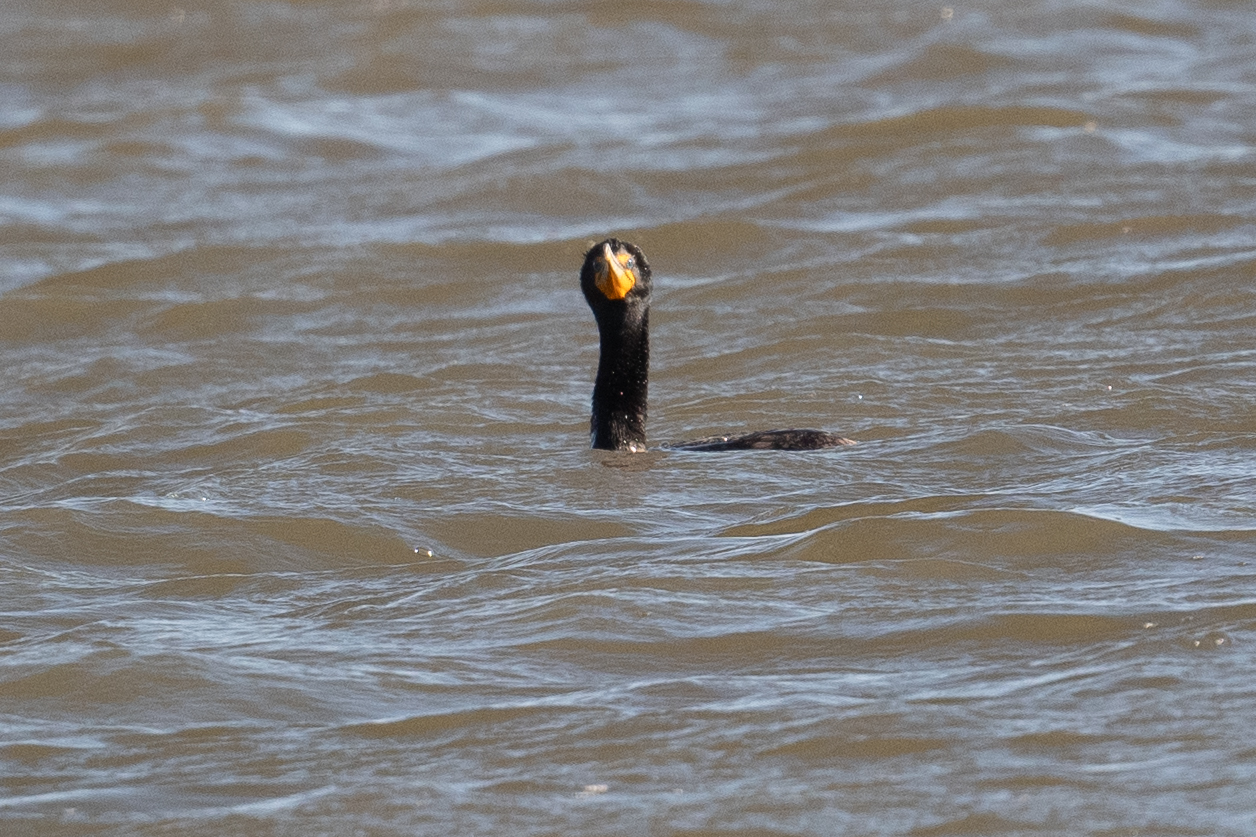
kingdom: Animalia
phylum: Chordata
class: Aves
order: Suliformes
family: Phalacrocoracidae
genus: Phalacrocorax
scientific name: Phalacrocorax auritus
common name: Double-crested cormorant
